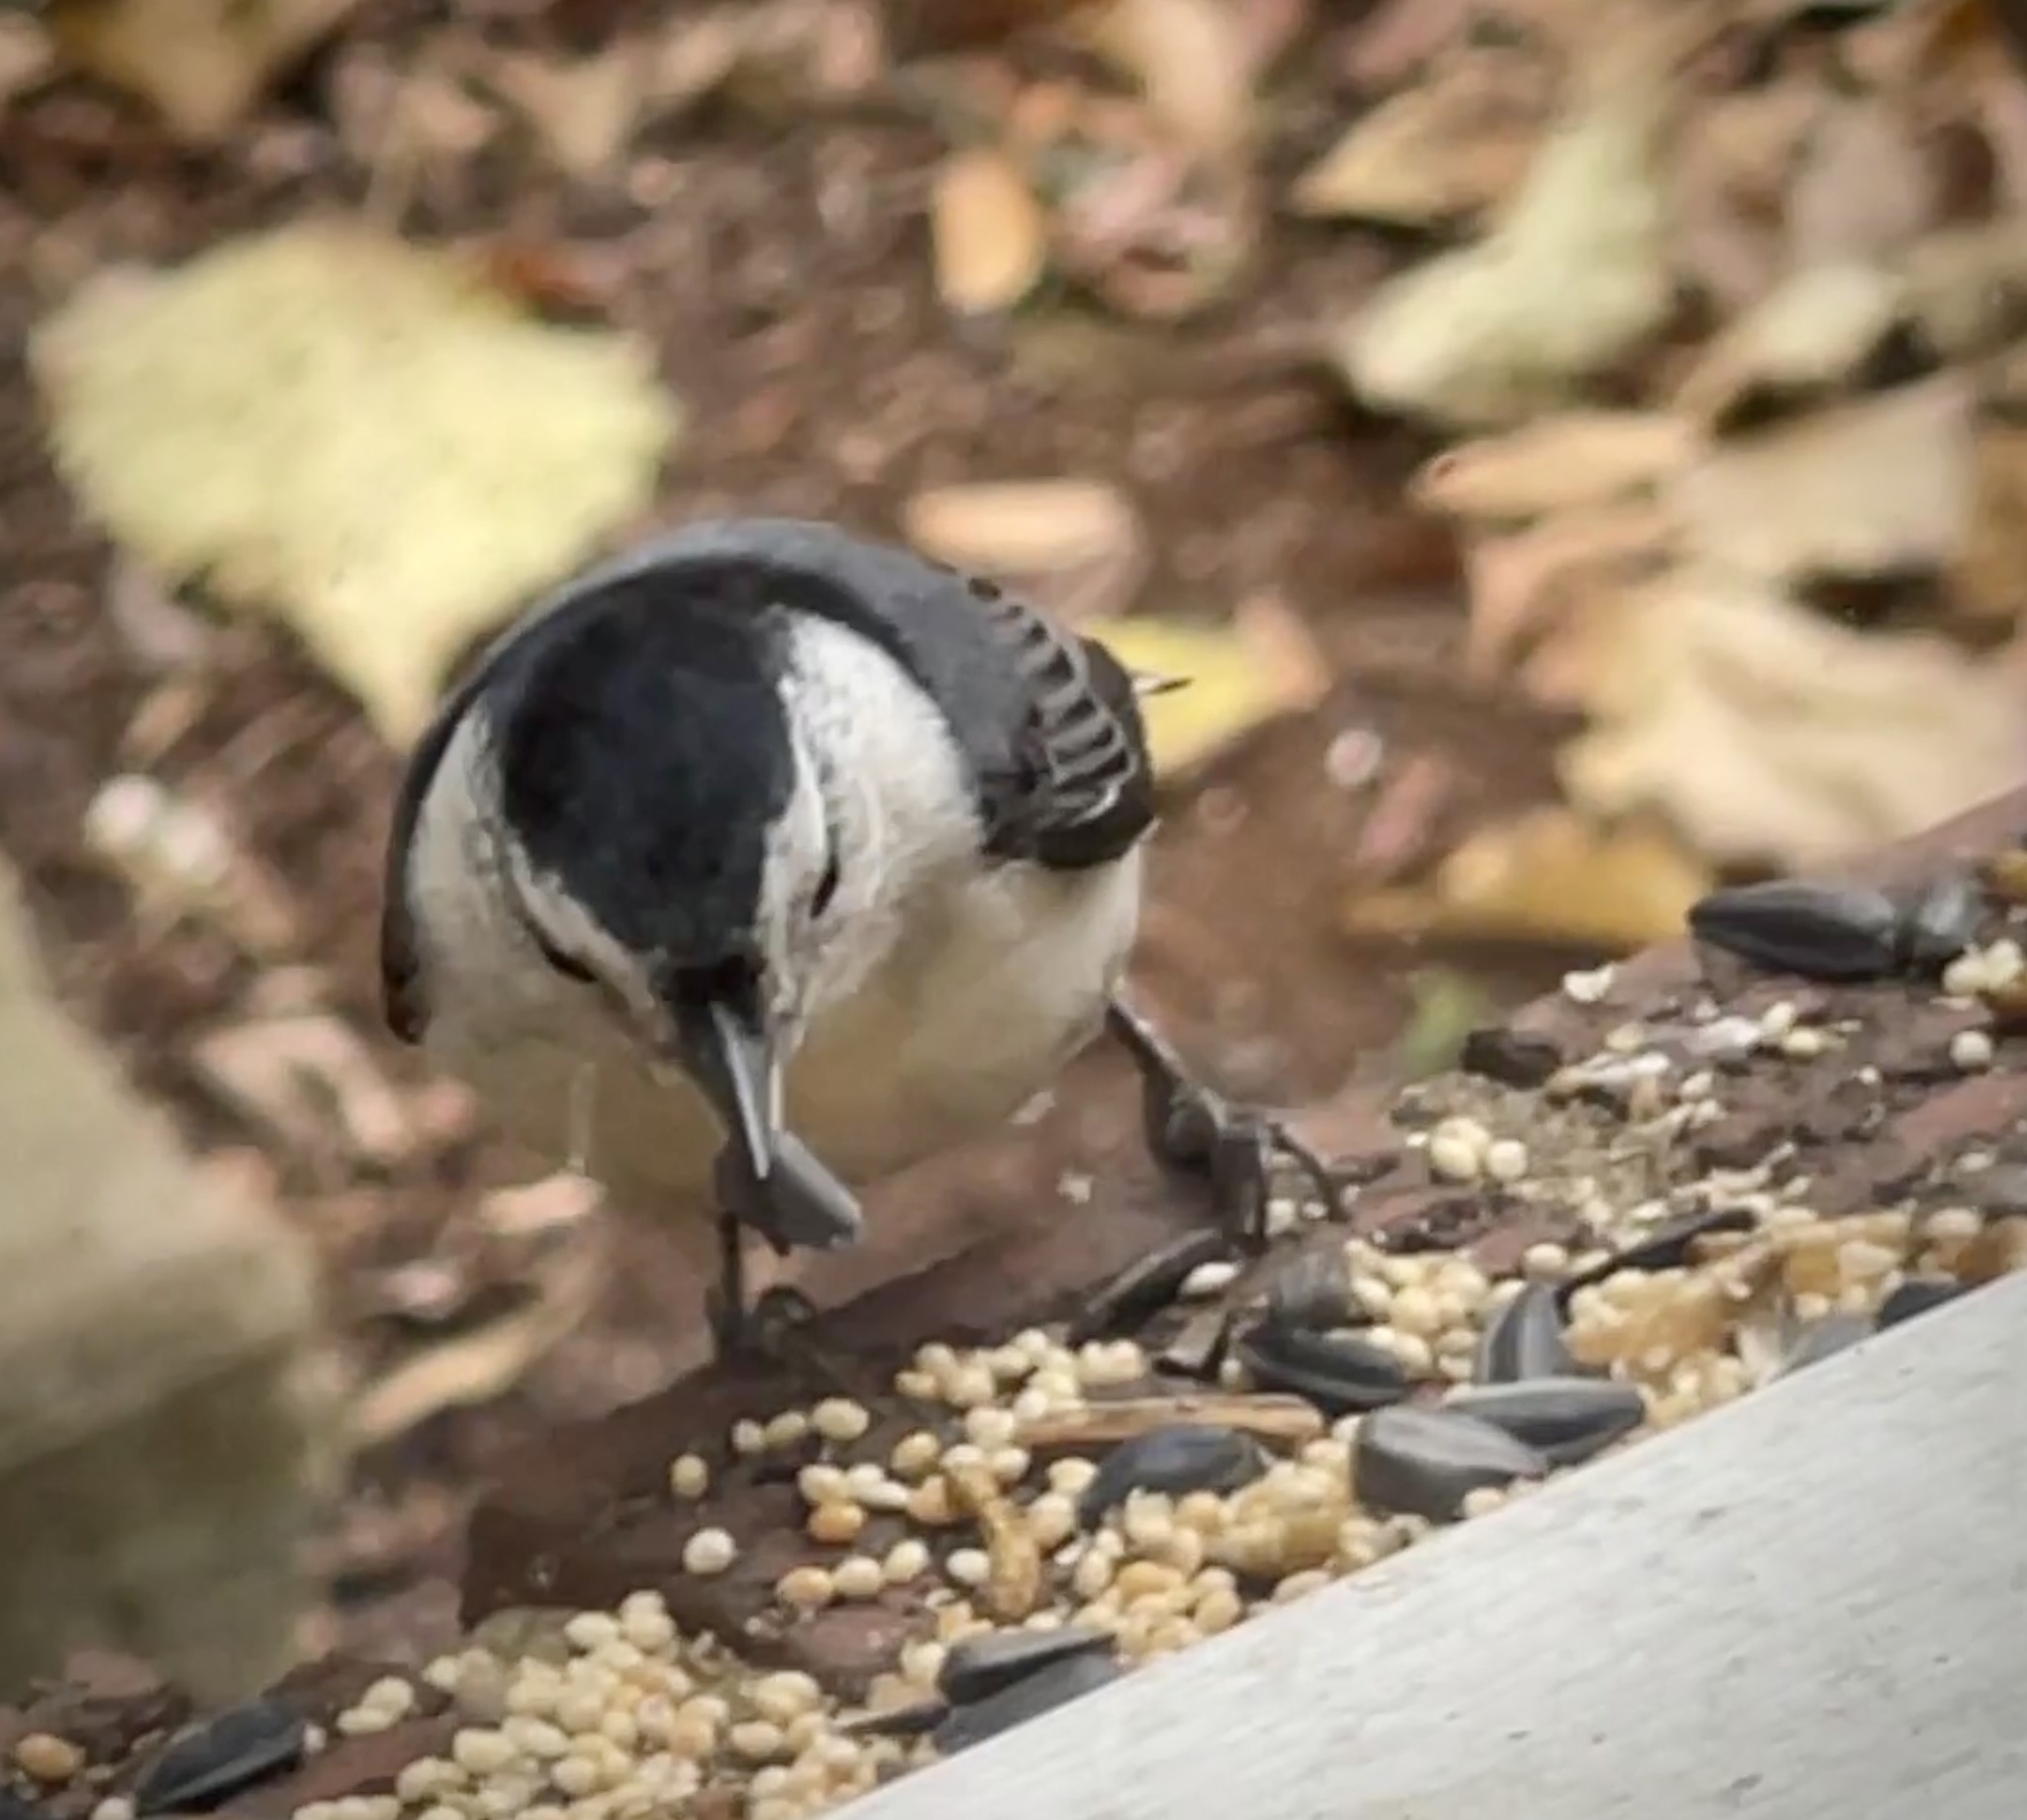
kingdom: Animalia
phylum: Chordata
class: Aves
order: Passeriformes
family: Sittidae
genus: Sitta
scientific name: Sitta carolinensis
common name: White-breasted nuthatch
